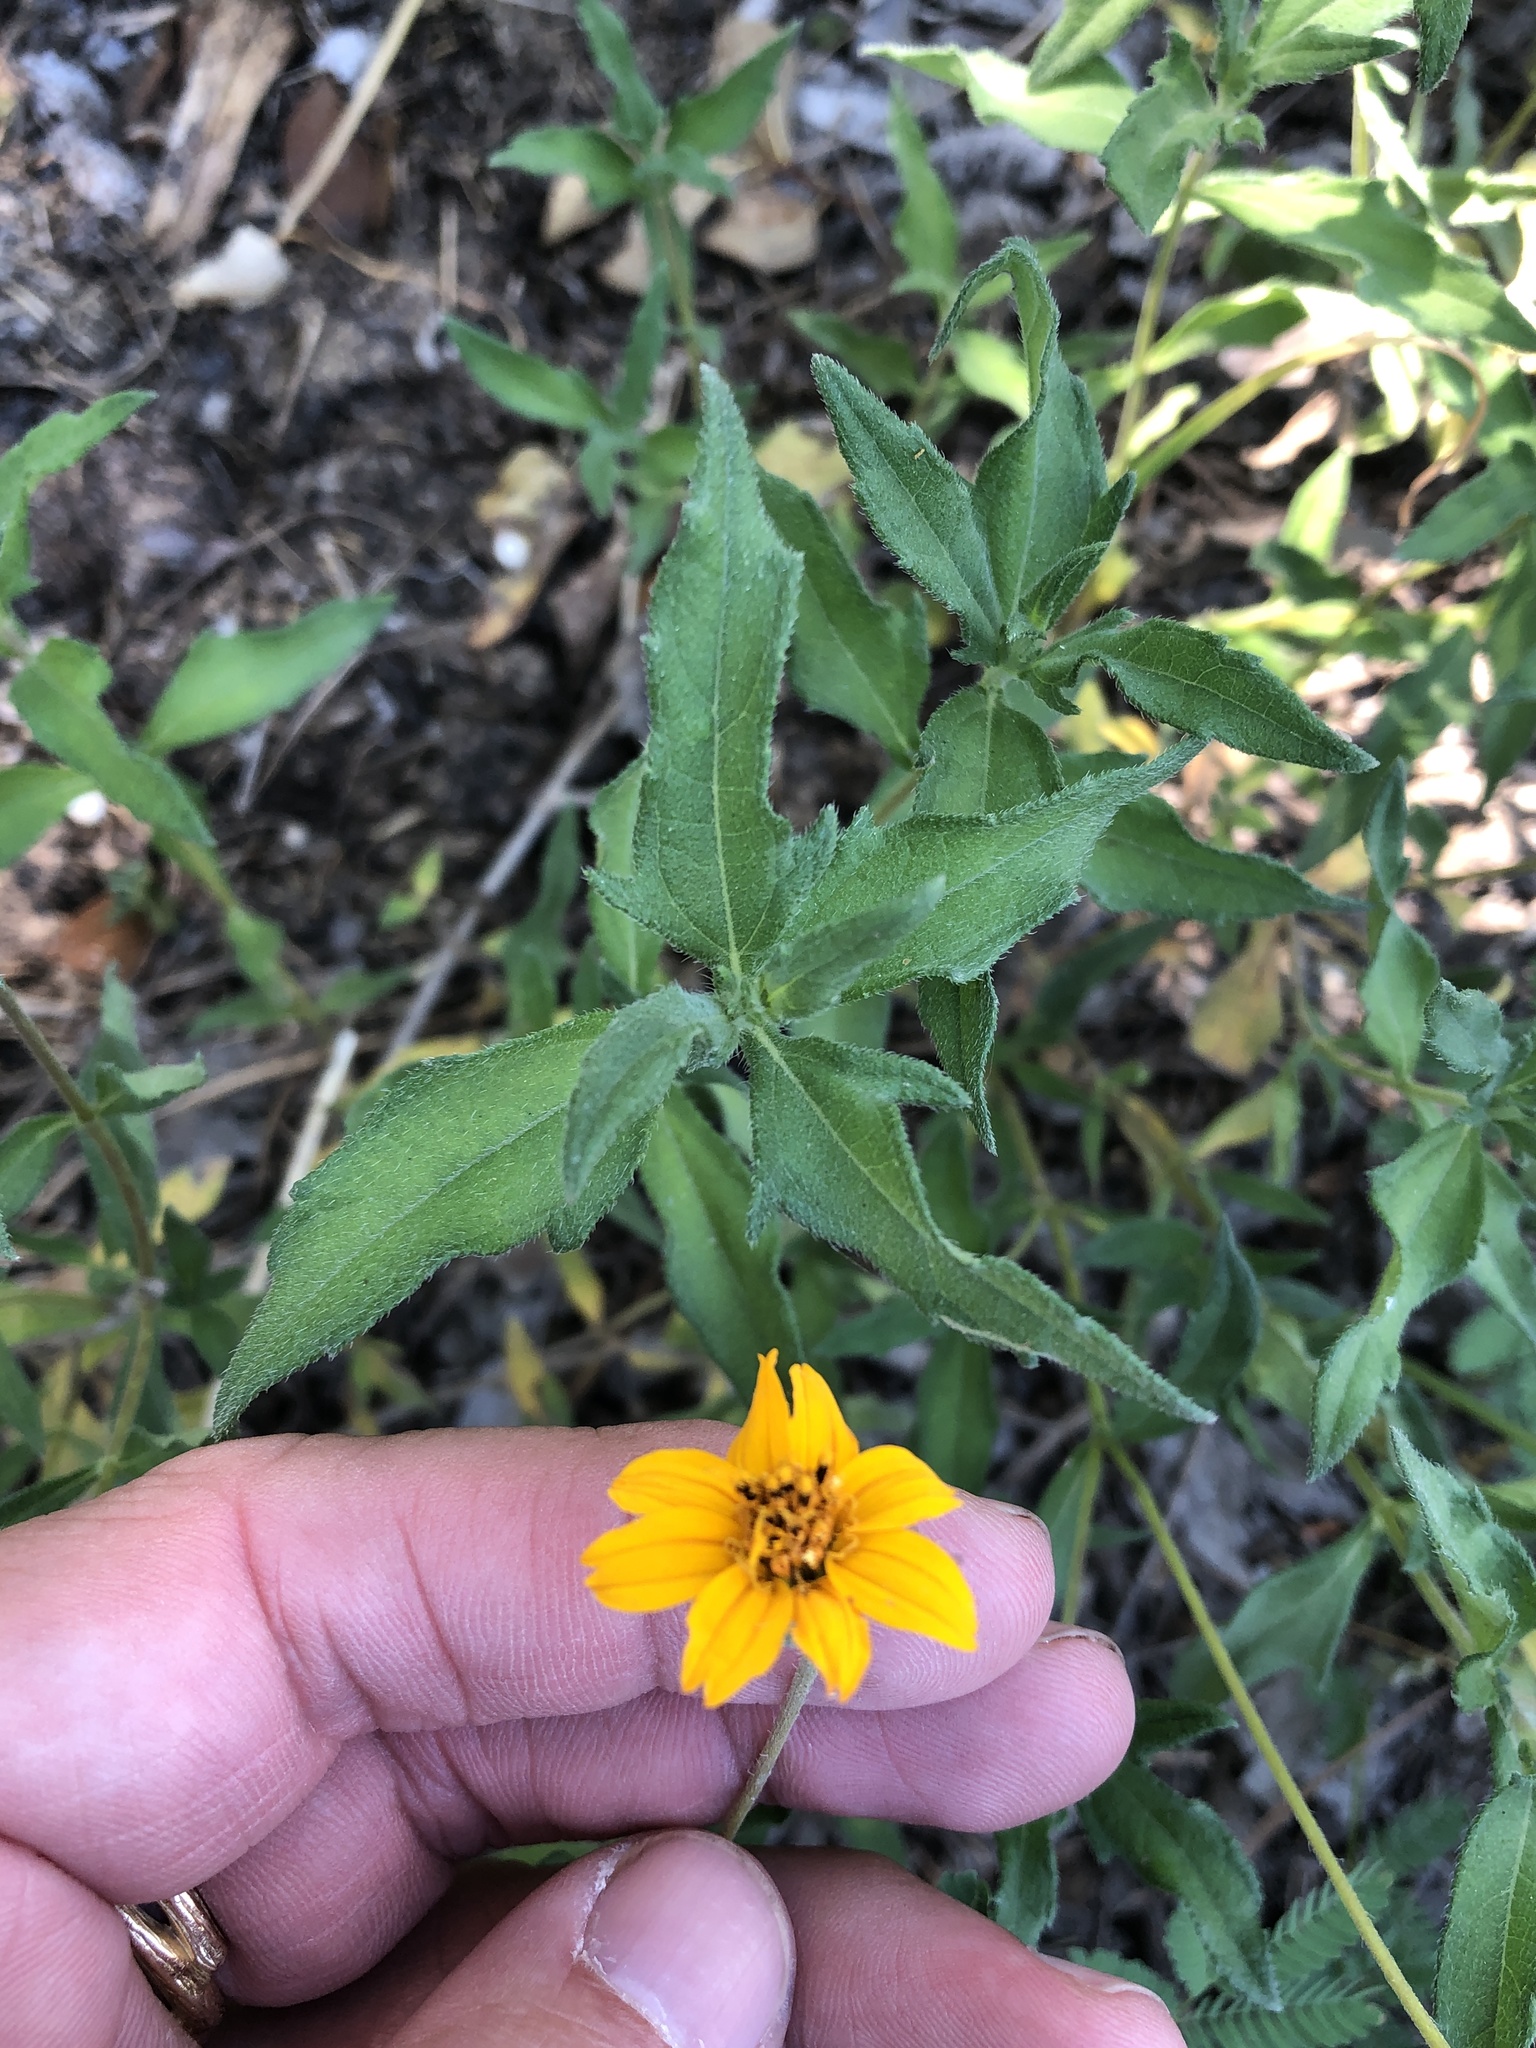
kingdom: Plantae
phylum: Tracheophyta
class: Magnoliopsida
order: Asterales
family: Asteraceae
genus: Wedelia
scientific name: Wedelia acapulcensis
